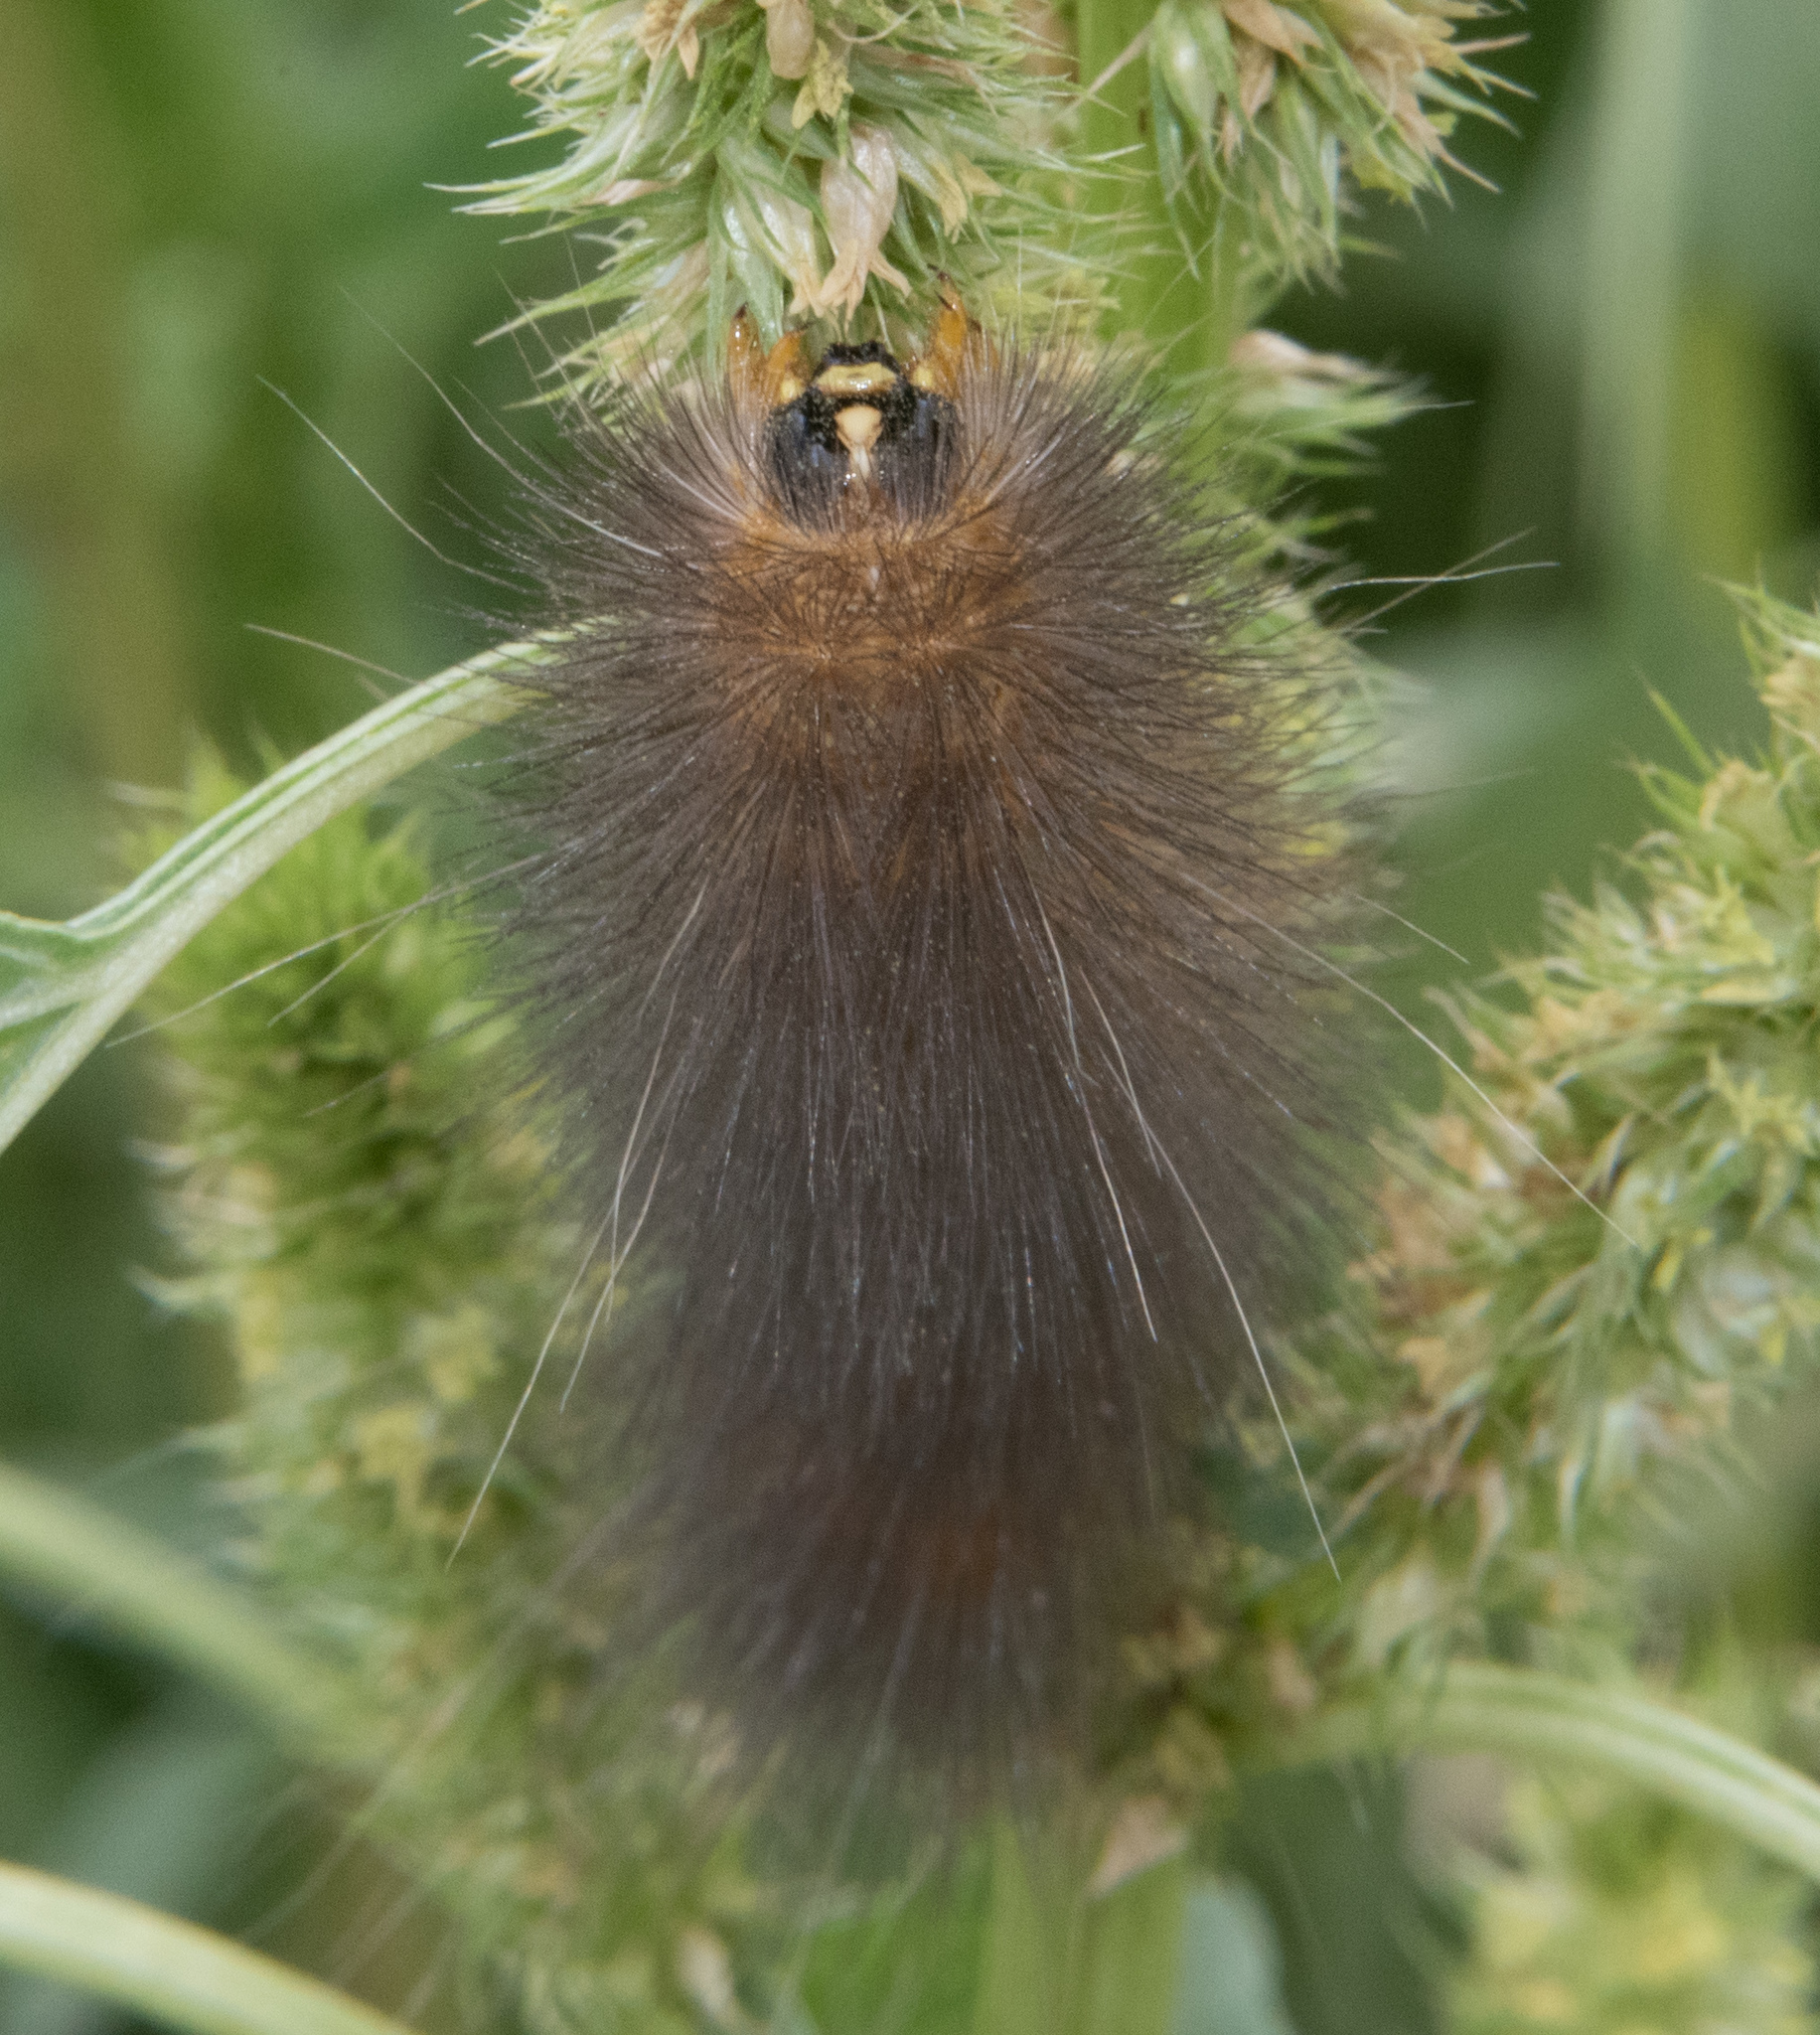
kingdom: Animalia
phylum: Arthropoda
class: Insecta
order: Lepidoptera
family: Erebidae
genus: Estigmene
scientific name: Estigmene
